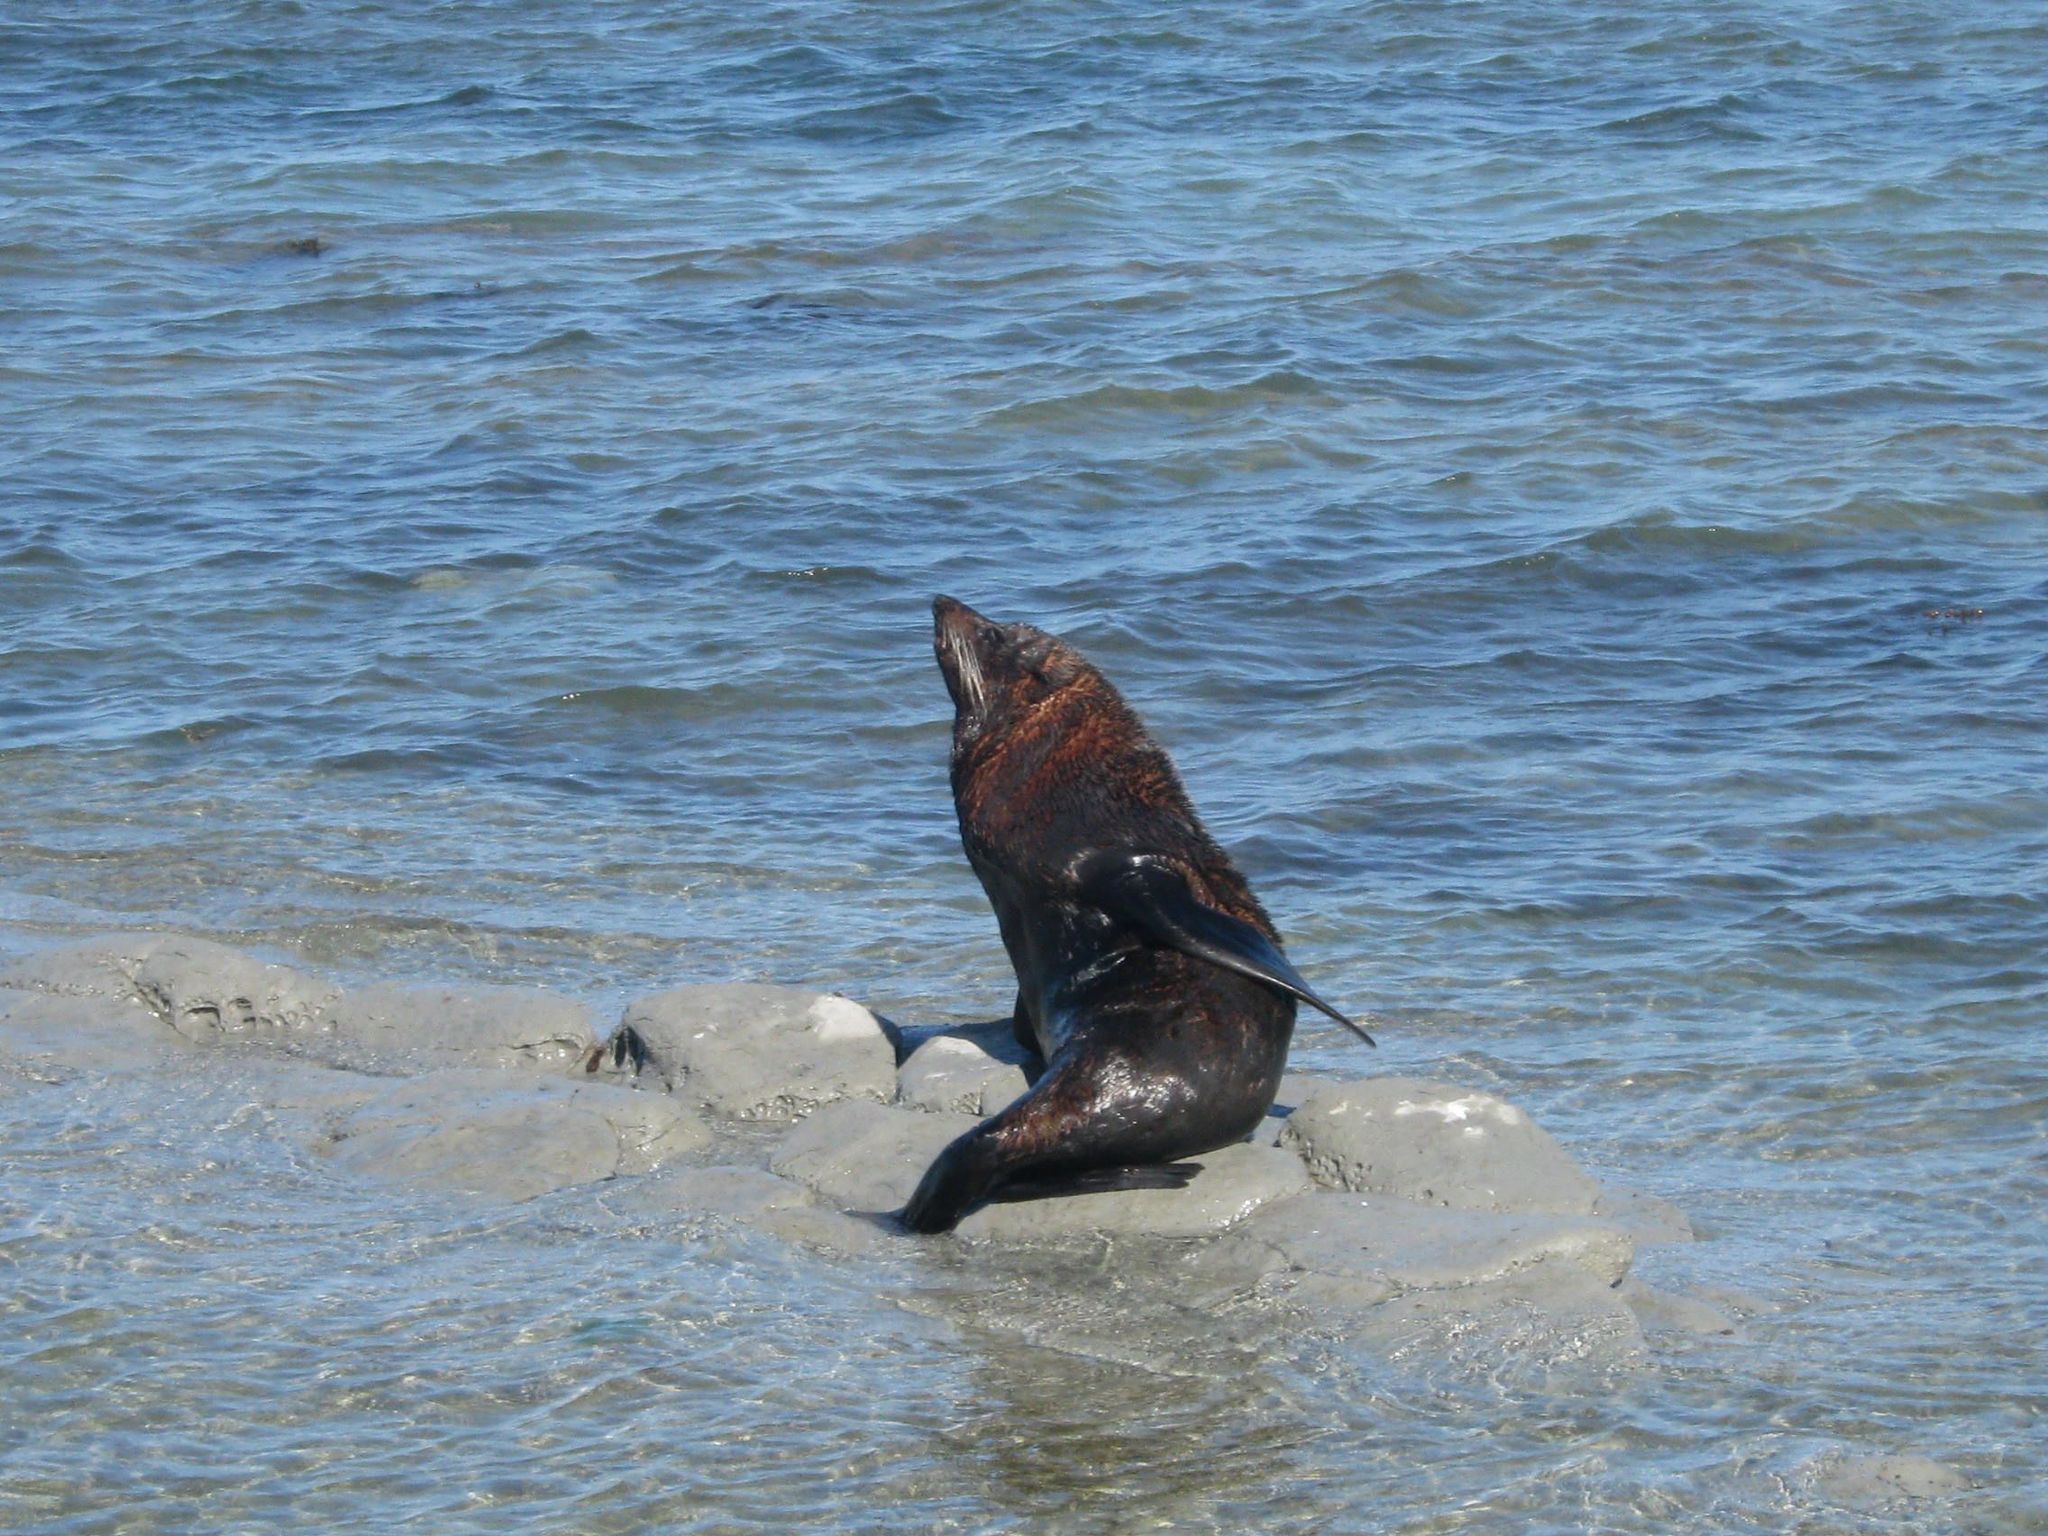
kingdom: Animalia
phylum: Chordata
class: Mammalia
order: Carnivora
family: Otariidae
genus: Arctocephalus
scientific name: Arctocephalus forsteri
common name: New zealand fur seal
